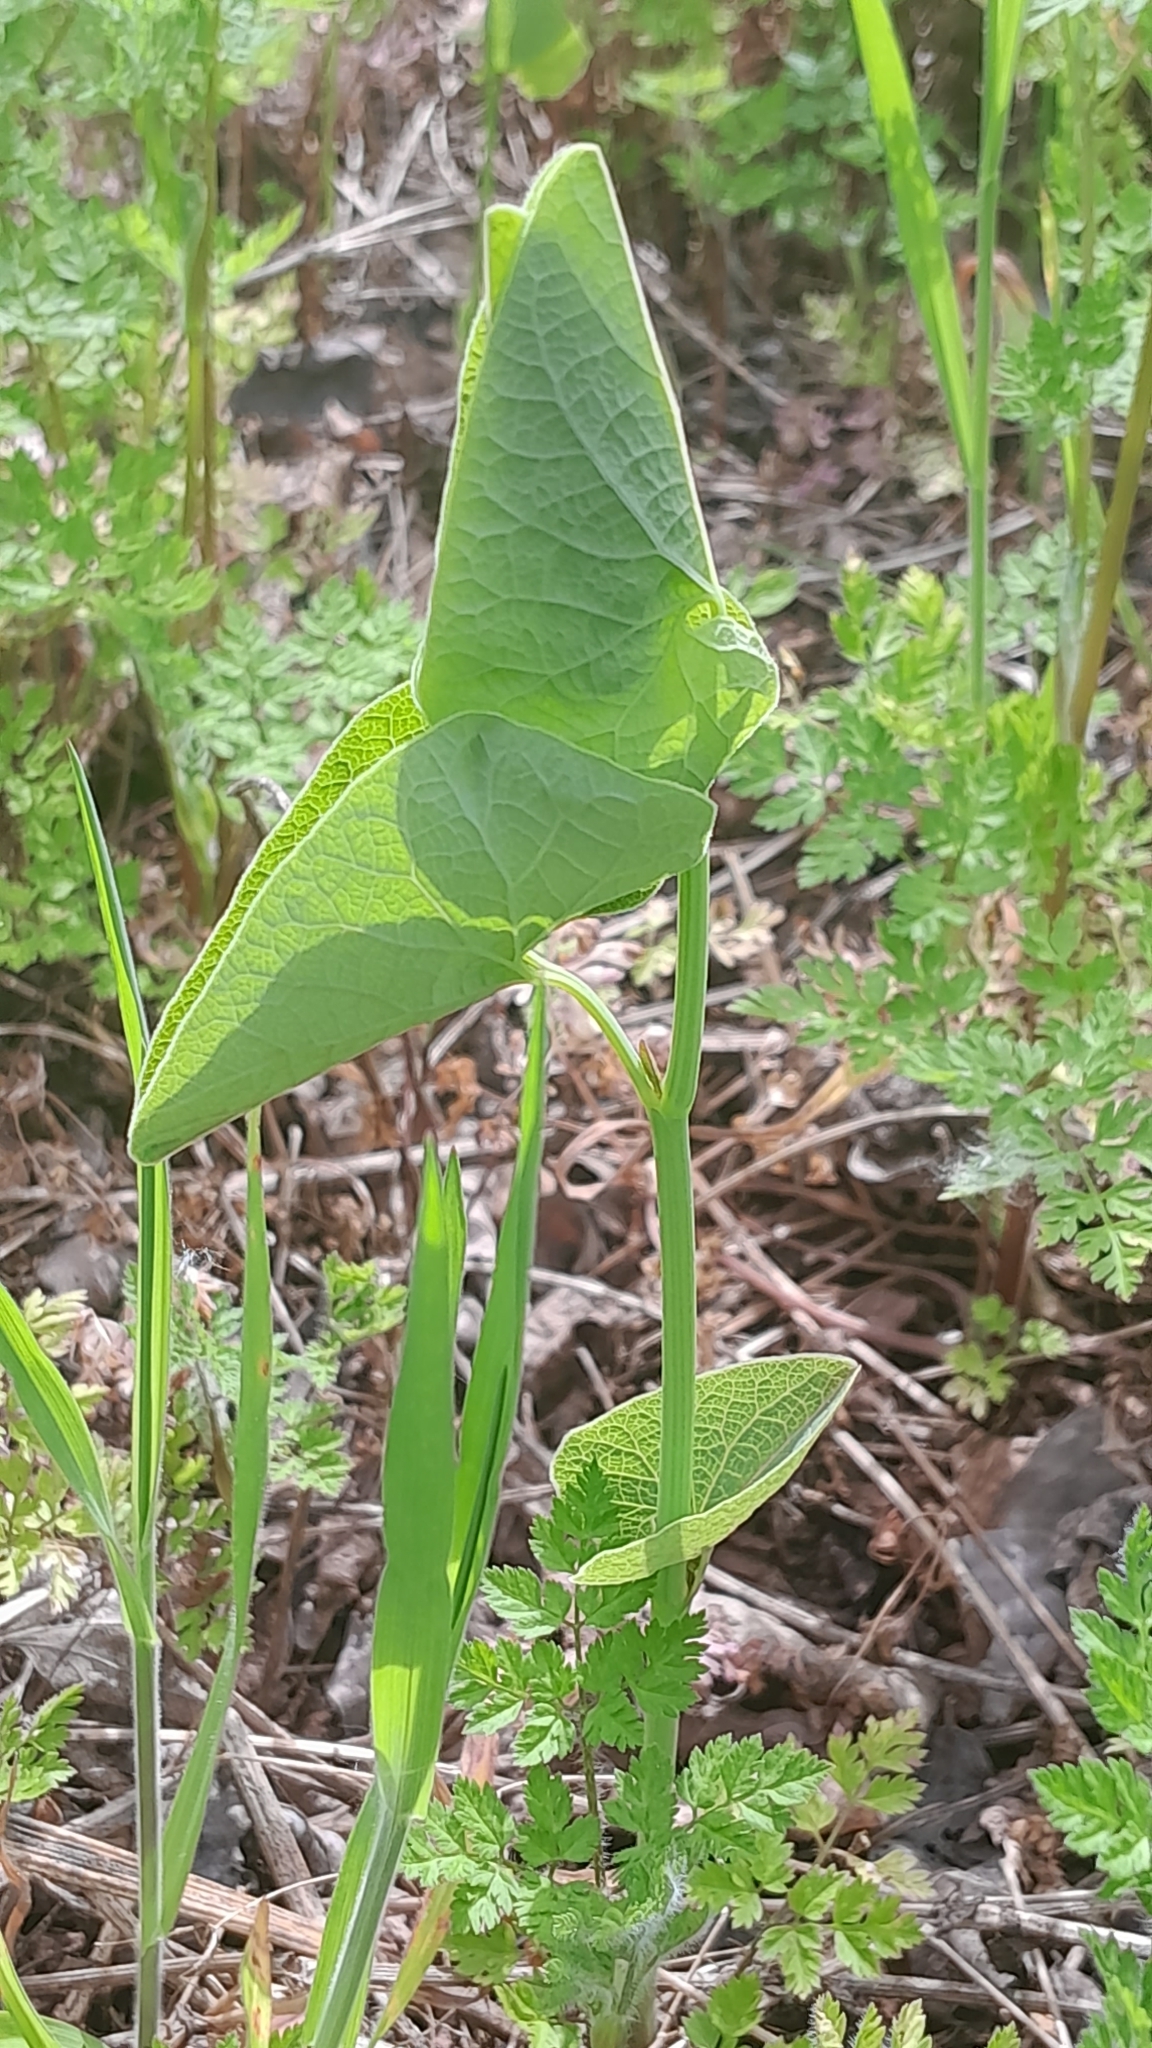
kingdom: Plantae
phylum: Tracheophyta
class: Magnoliopsida
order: Piperales
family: Aristolochiaceae
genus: Aristolochia
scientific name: Aristolochia clematitis
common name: Birthwort
